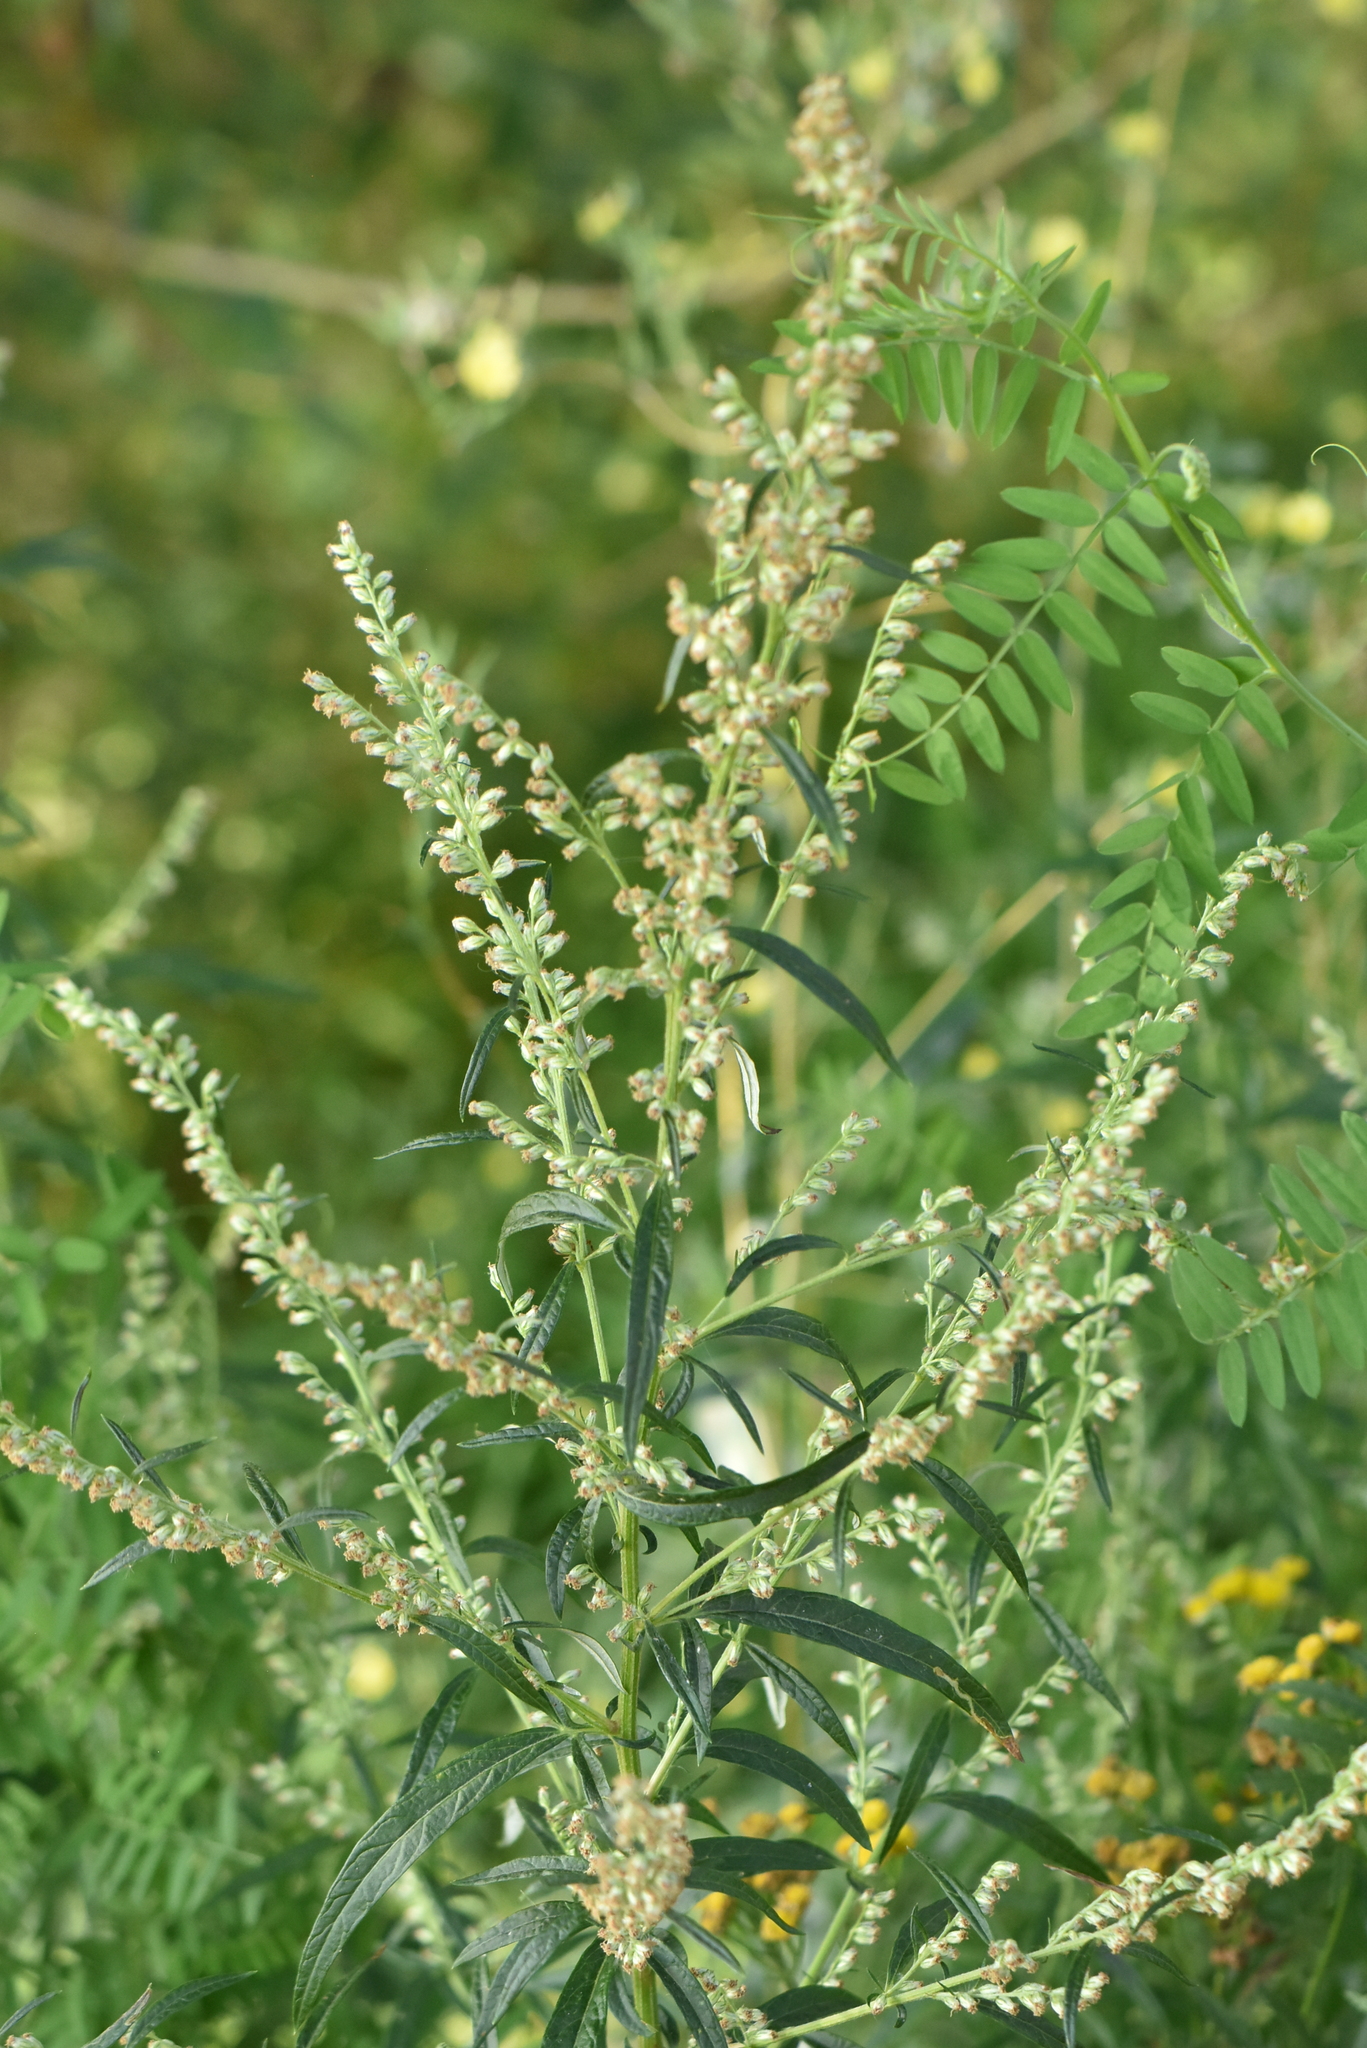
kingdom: Plantae
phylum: Tracheophyta
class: Magnoliopsida
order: Asterales
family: Asteraceae
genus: Artemisia
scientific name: Artemisia vulgaris
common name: Mugwort
